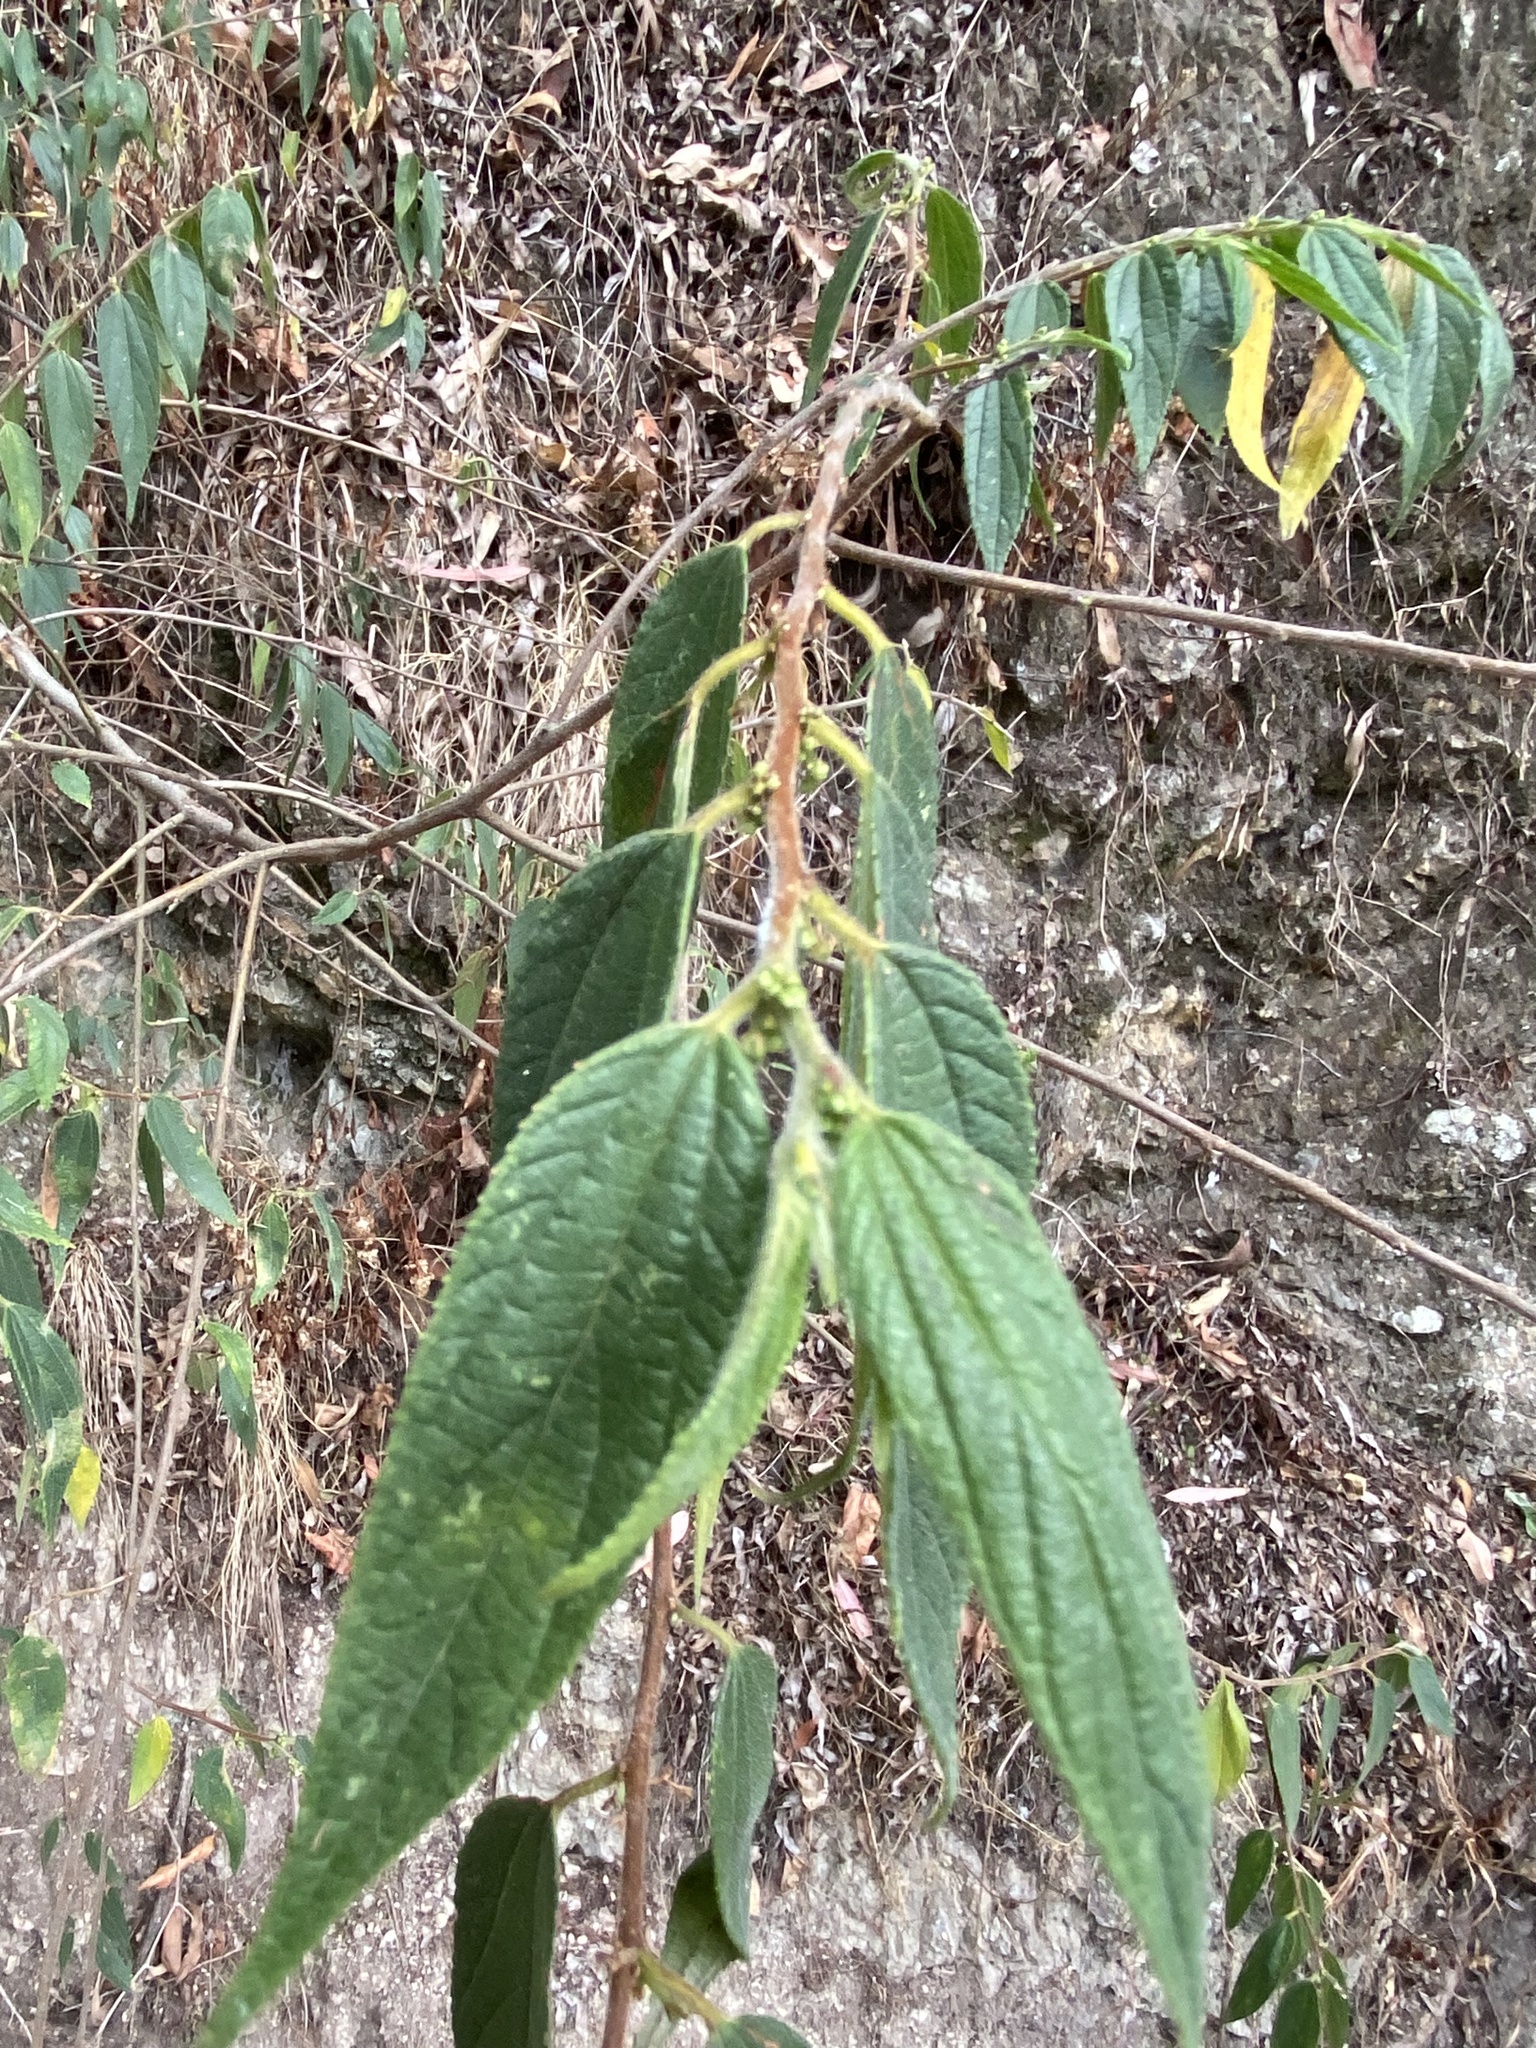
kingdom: Plantae
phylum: Tracheophyta
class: Magnoliopsida
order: Rosales
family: Cannabaceae
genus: Trema
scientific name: Trema tomentosum
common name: Peach-leaf-poisonbush
